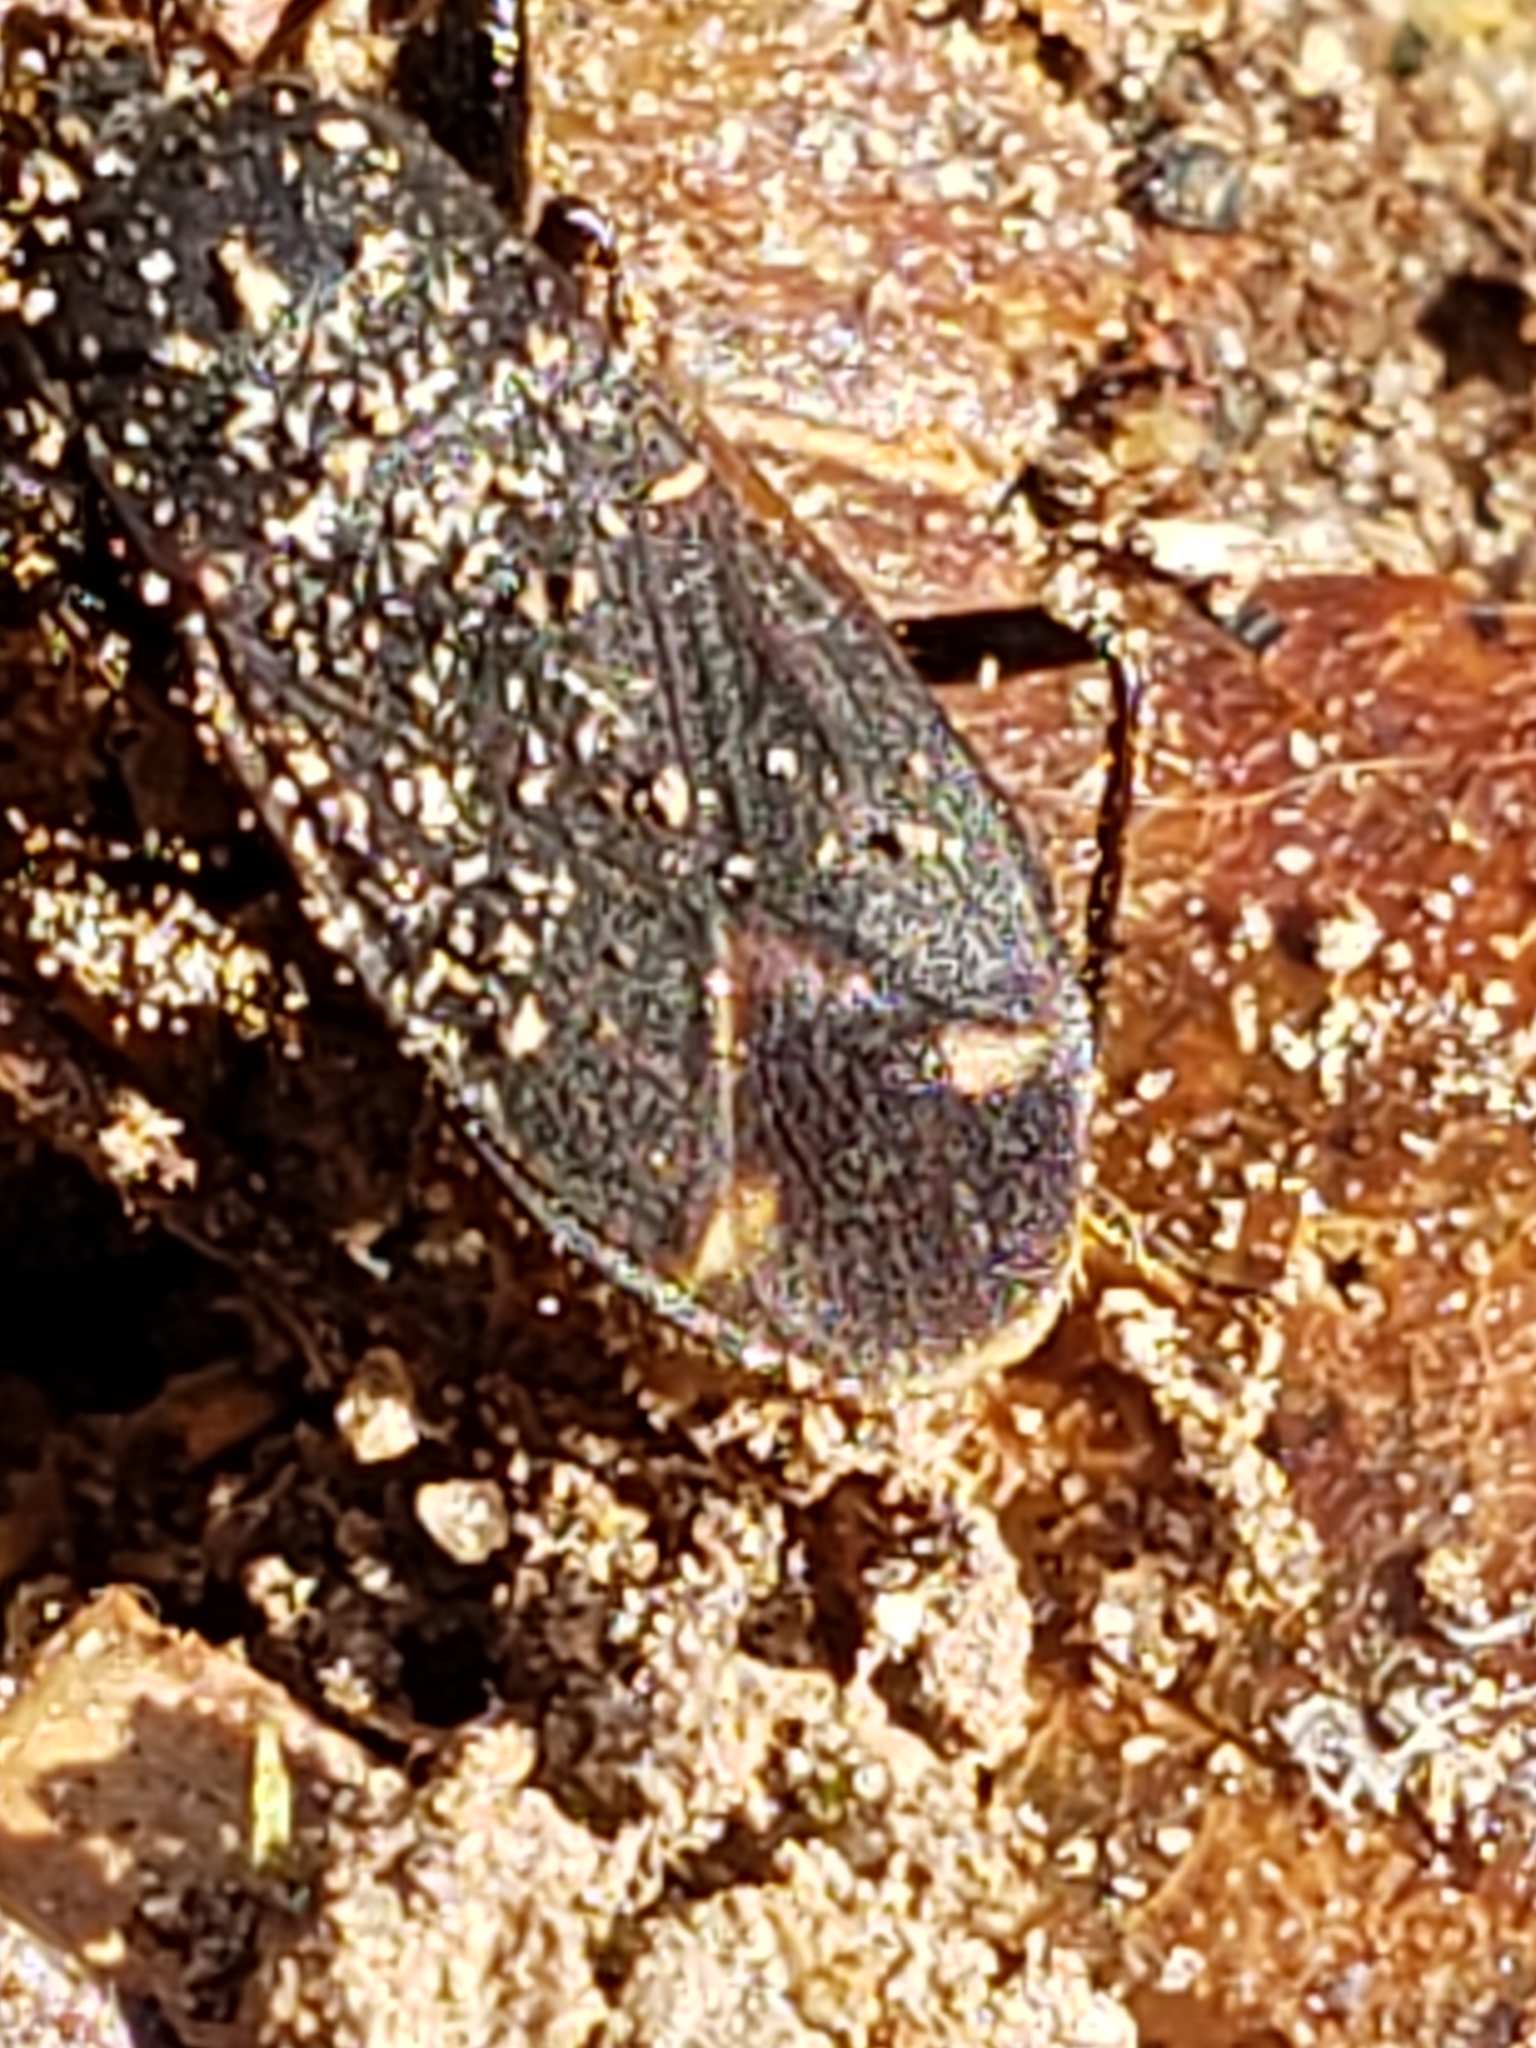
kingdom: Animalia
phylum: Arthropoda
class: Insecta
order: Hemiptera
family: Rhyparochromidae
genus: Eremocoris
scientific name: Eremocoris setosus
